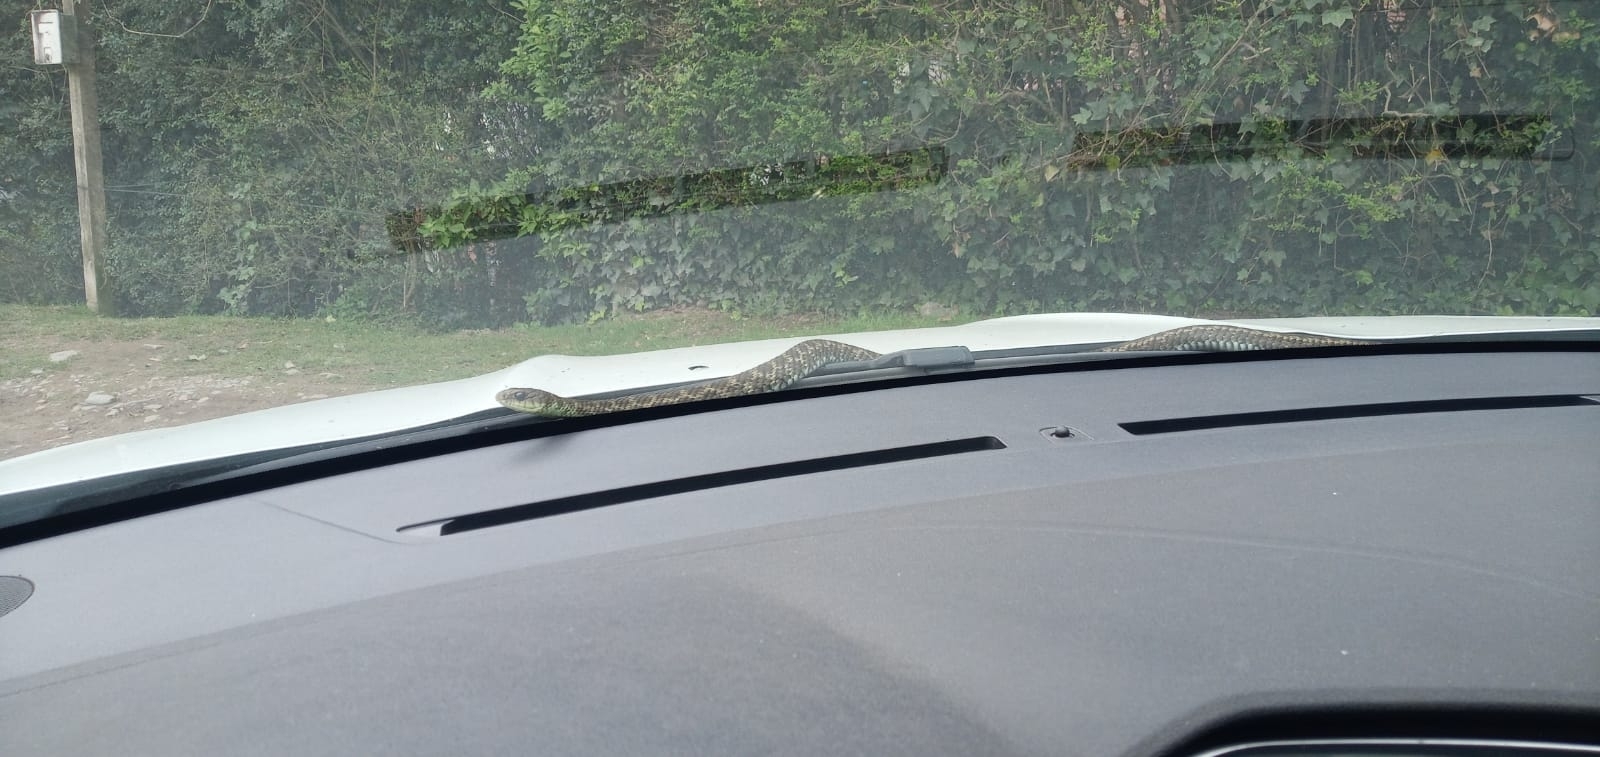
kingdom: Animalia
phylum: Chordata
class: Squamata
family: Colubridae
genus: Philodryas
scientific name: Philodryas varia
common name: Jan's green racer
